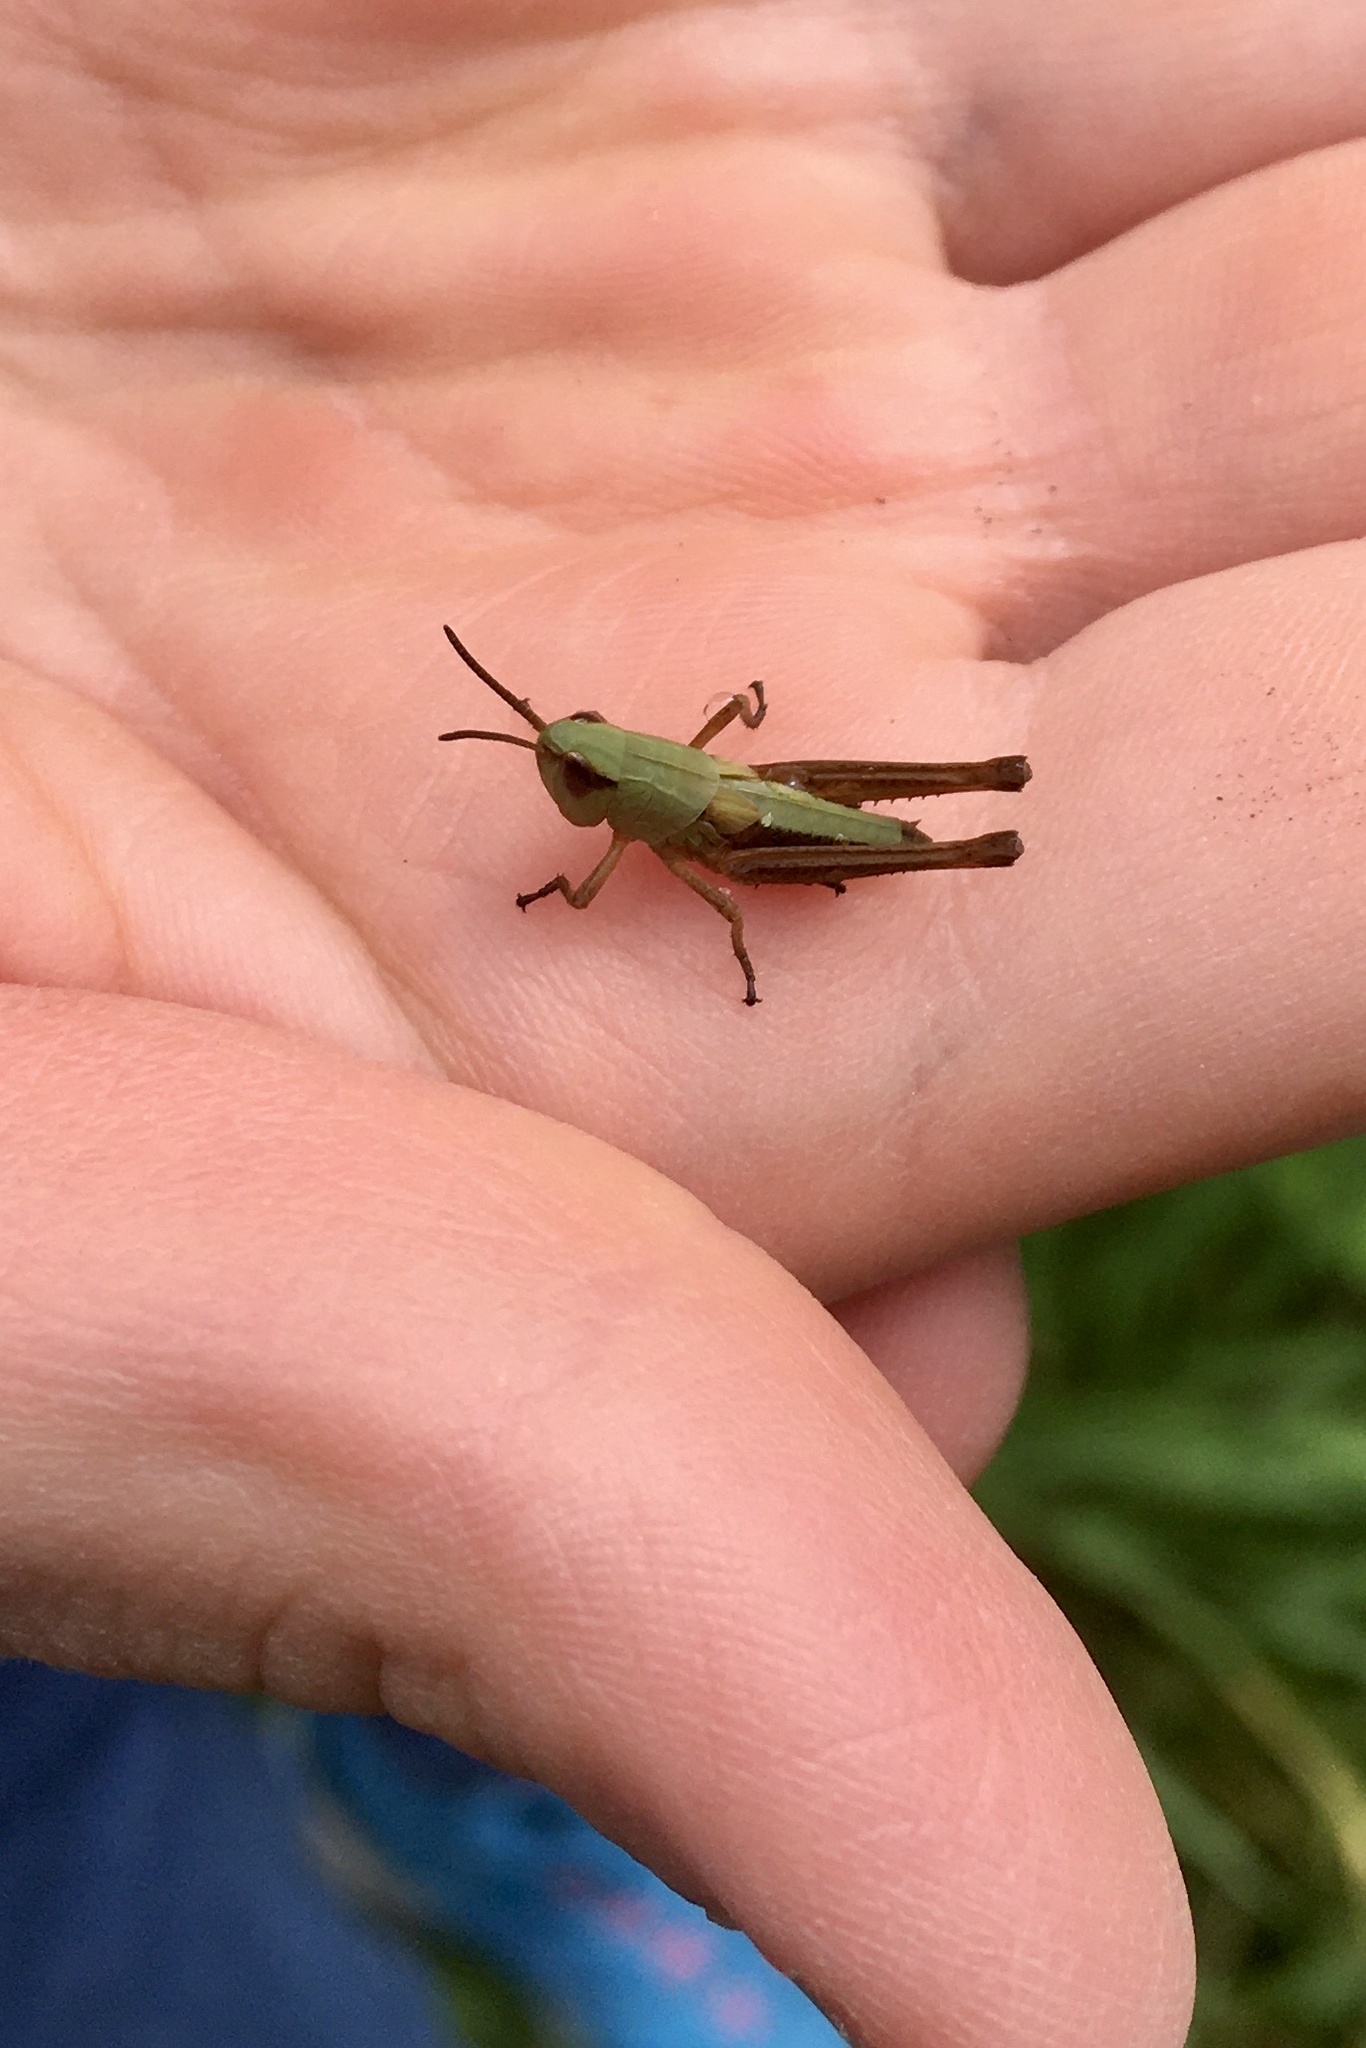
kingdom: Animalia
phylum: Arthropoda
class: Insecta
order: Orthoptera
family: Acrididae
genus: Pseudochorthippus
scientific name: Pseudochorthippus parallelus
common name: Meadow grasshopper
